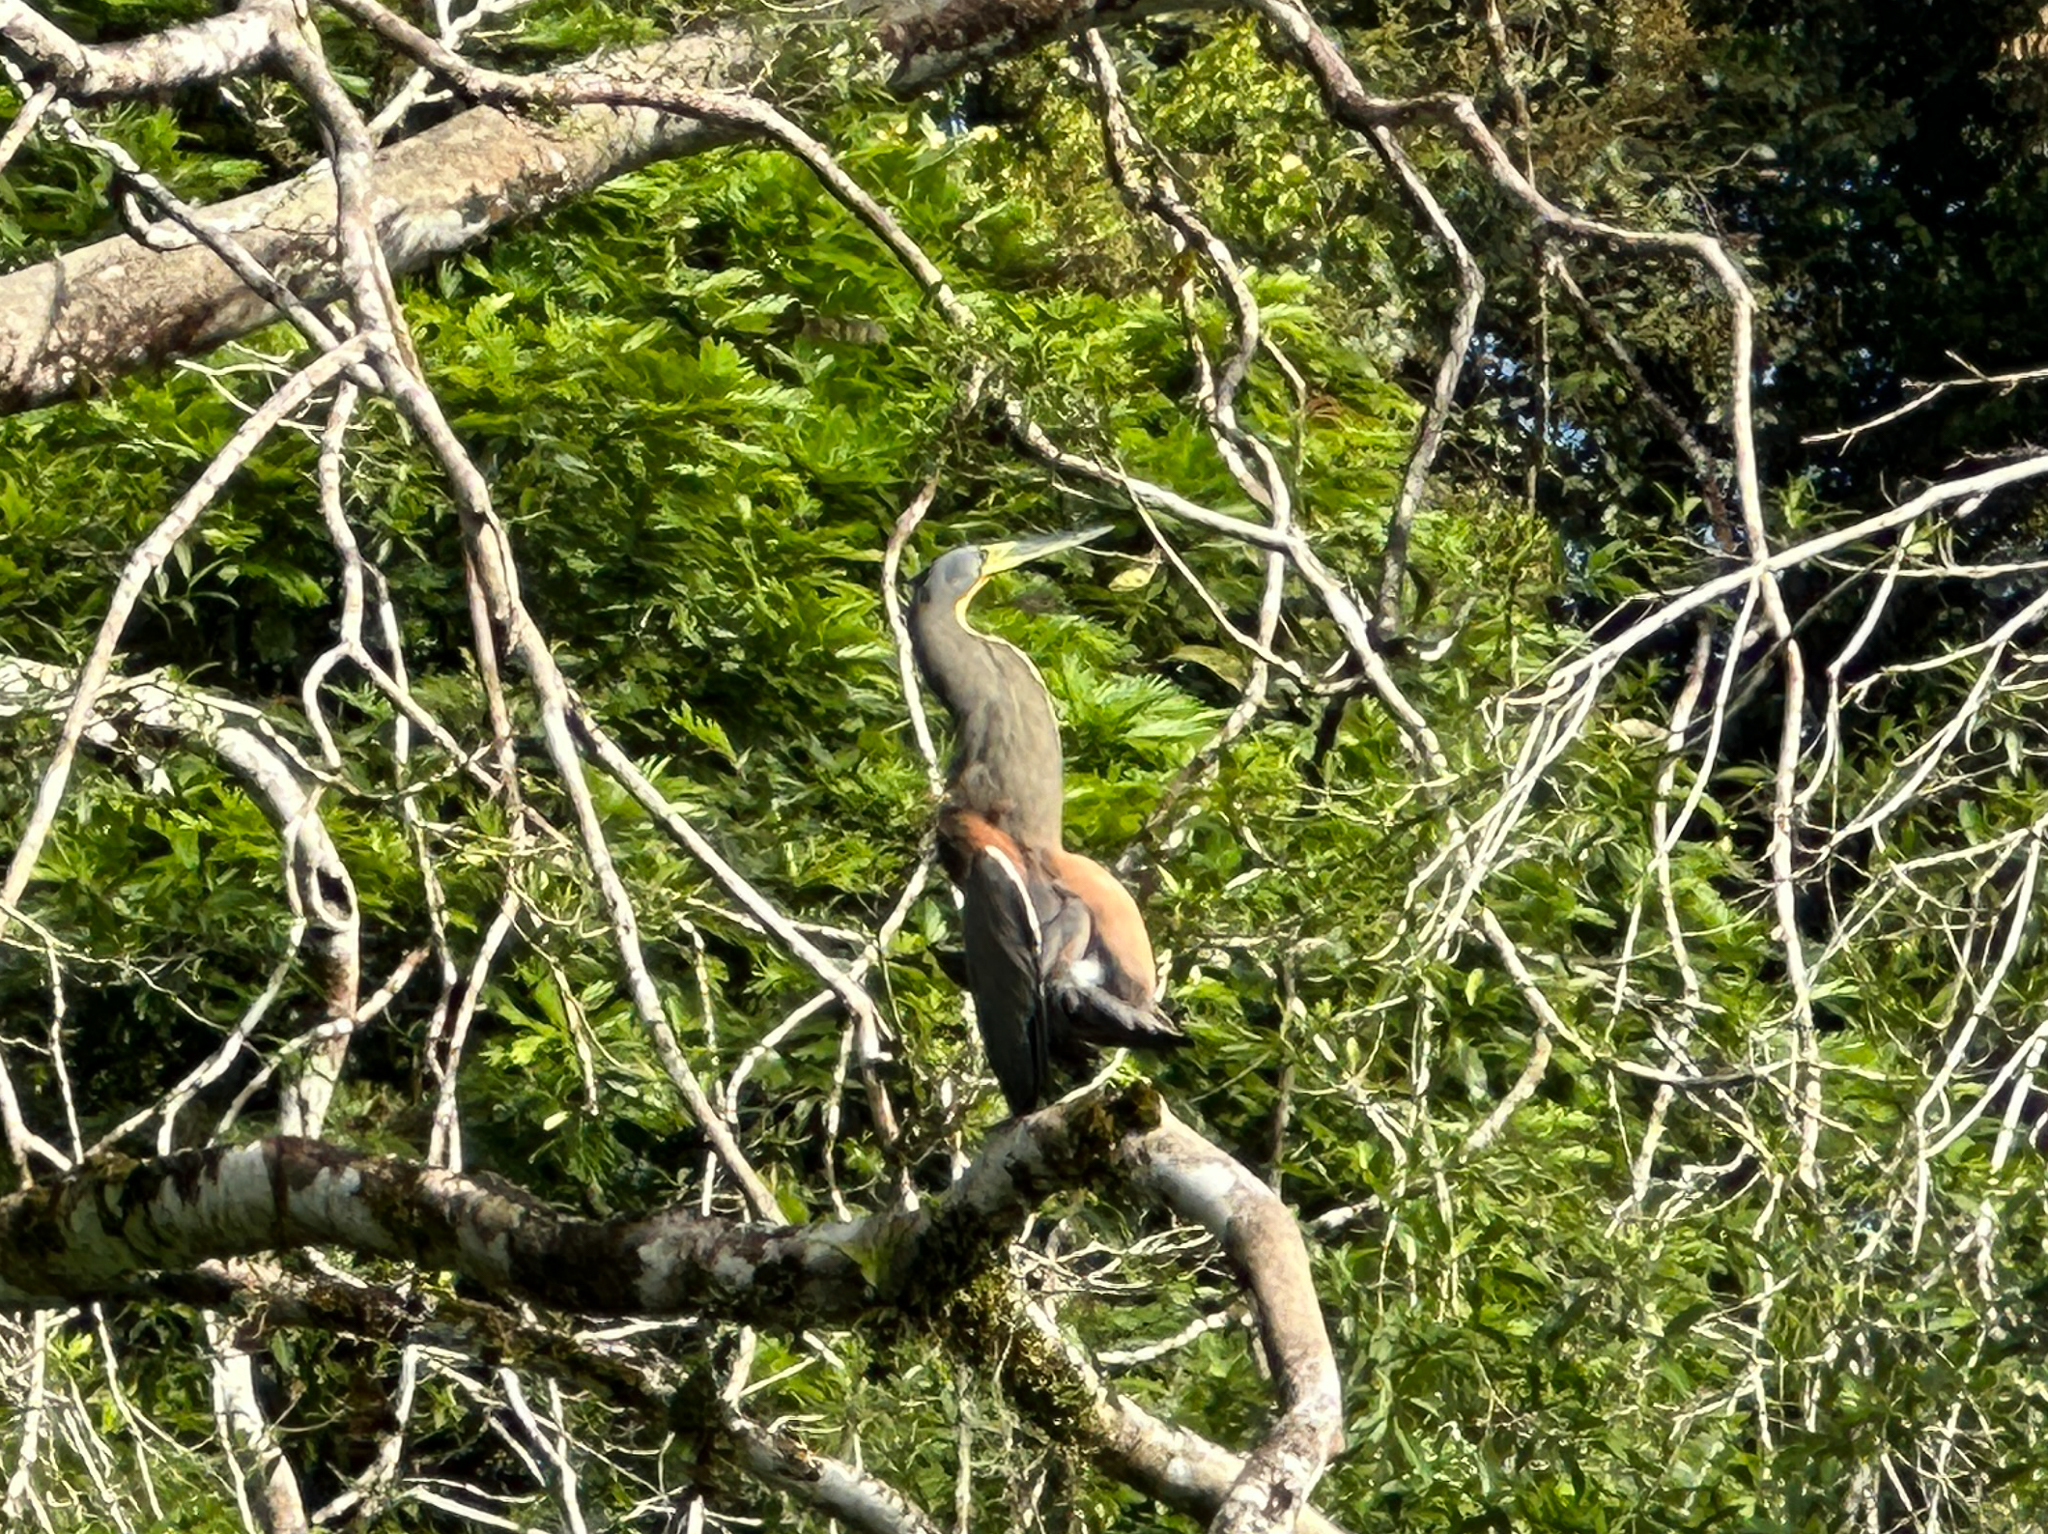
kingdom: Animalia
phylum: Chordata
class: Aves
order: Pelecaniformes
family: Ardeidae
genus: Tigrisoma
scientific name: Tigrisoma mexicanum
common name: Bare-throated tiger-heron
